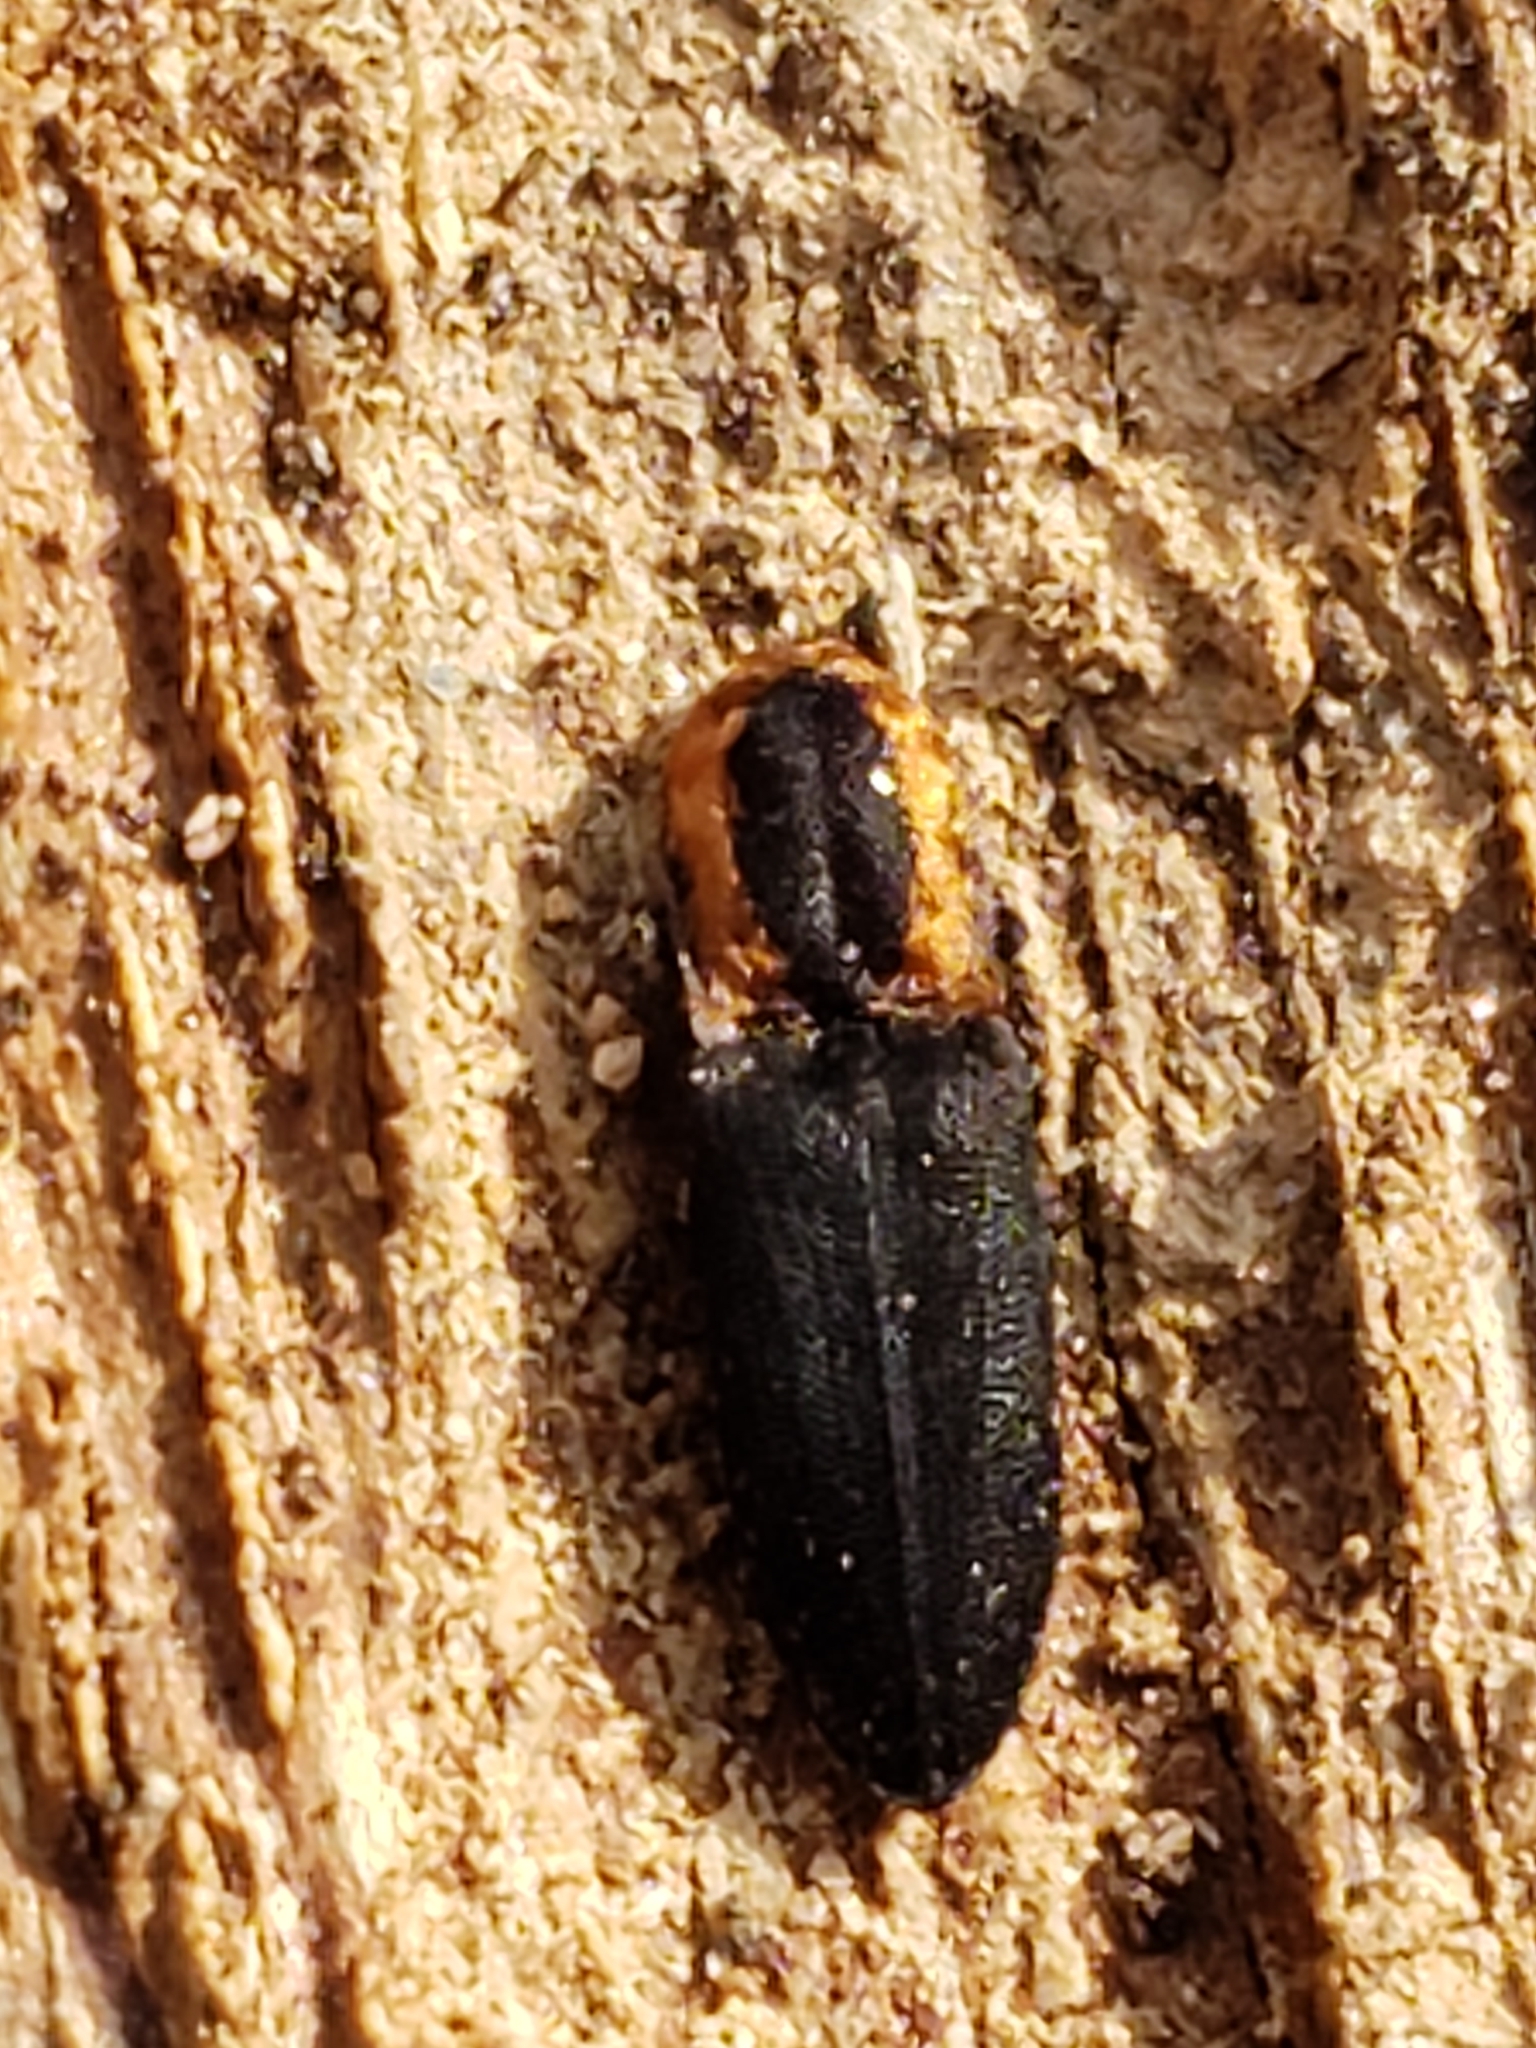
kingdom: Animalia
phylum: Arthropoda
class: Insecta
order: Coleoptera
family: Elateridae
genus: Lacon
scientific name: Lacon discoideus
